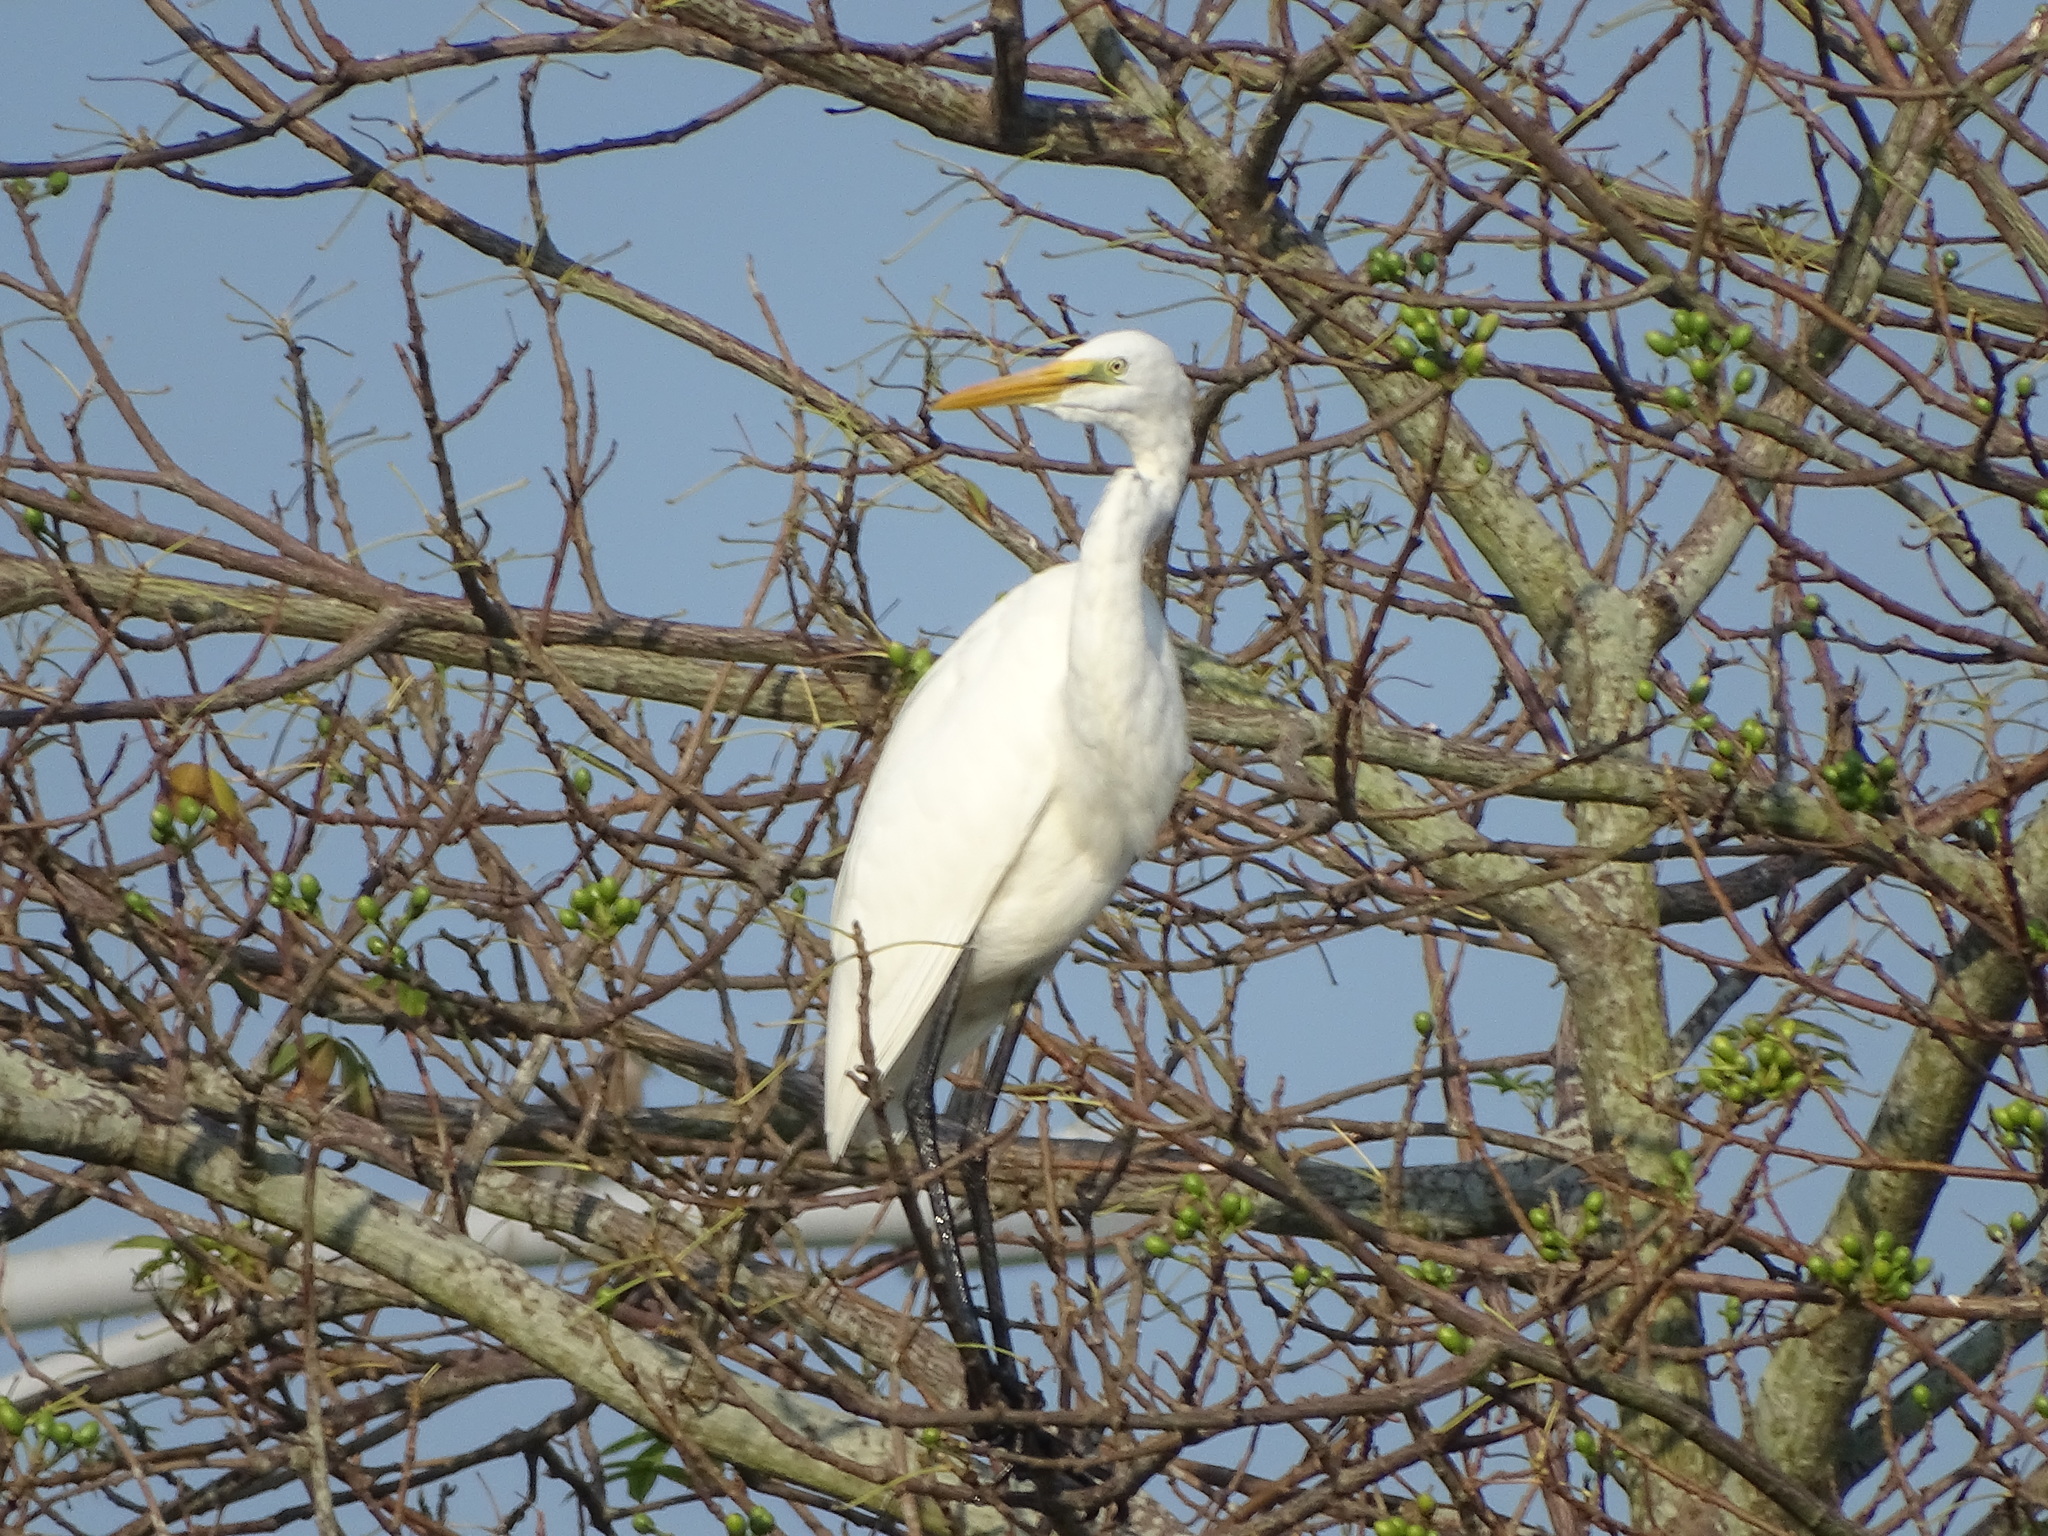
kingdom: Animalia
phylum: Chordata
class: Aves
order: Pelecaniformes
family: Ardeidae
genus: Ardea
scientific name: Ardea alba
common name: Great egret
